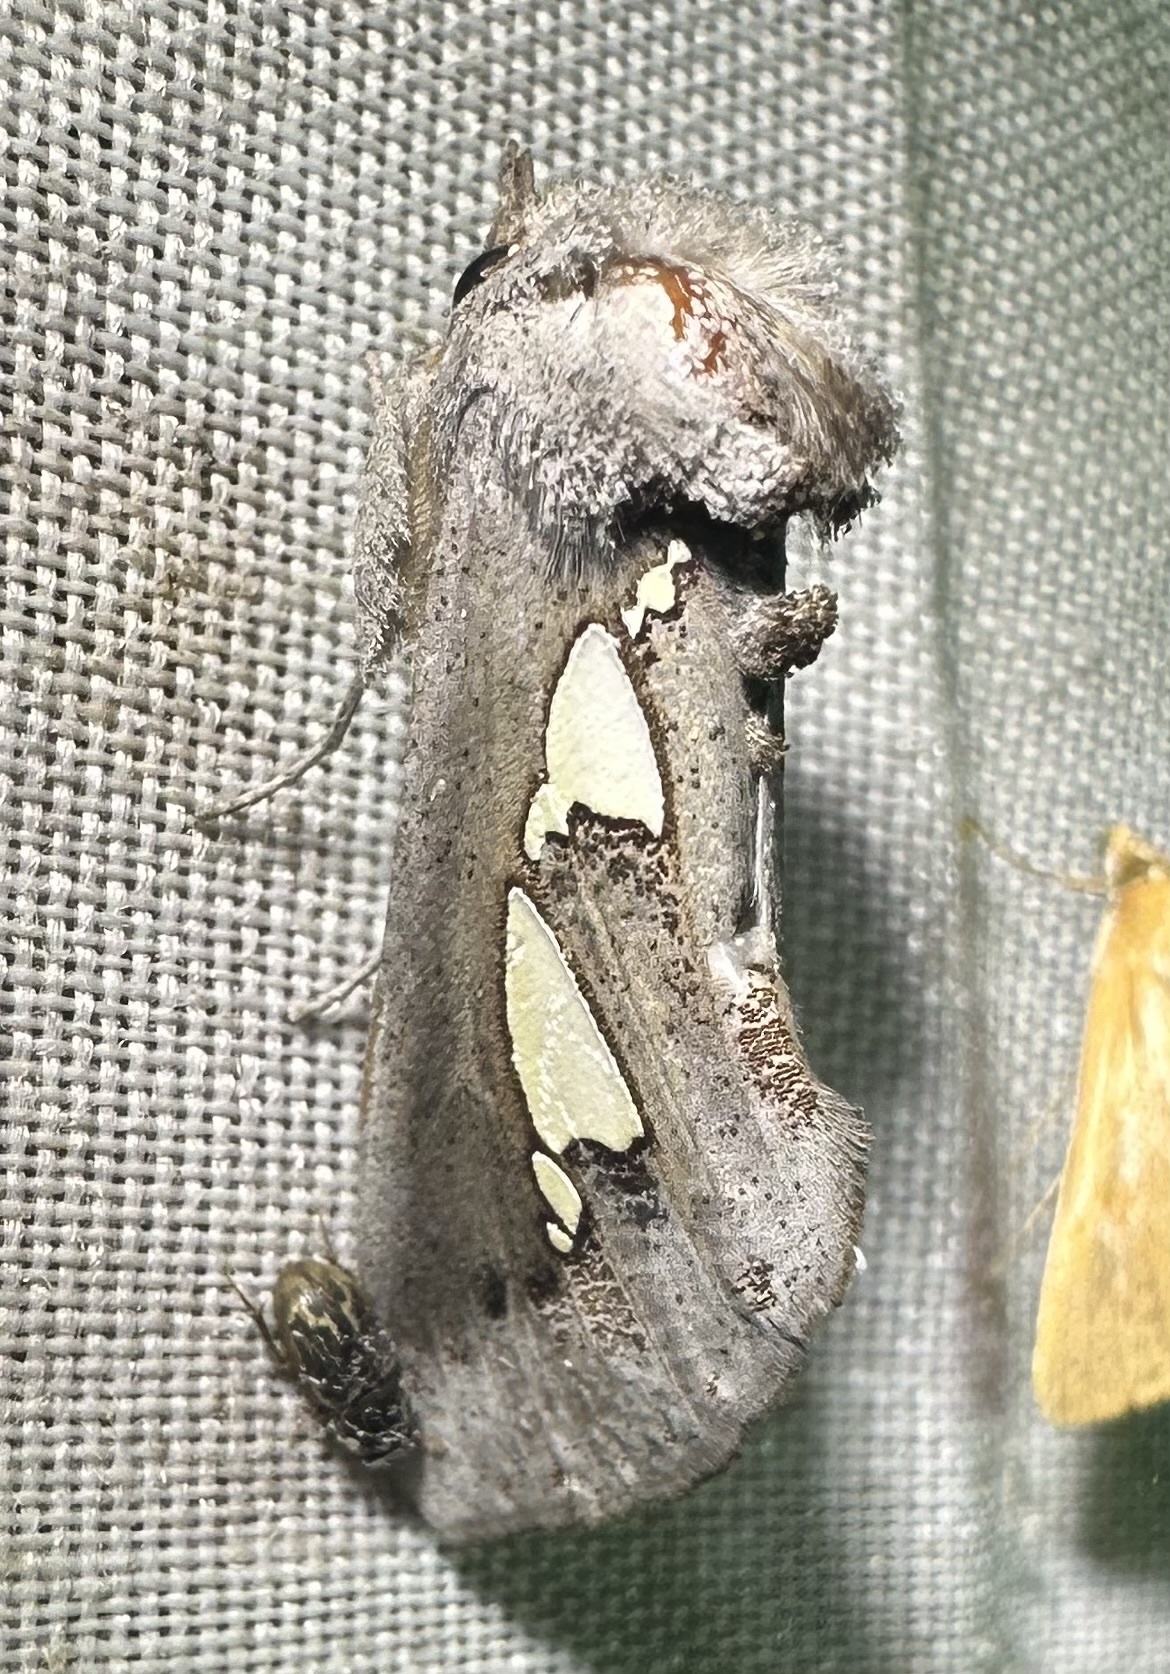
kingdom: Animalia
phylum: Arthropoda
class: Insecta
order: Lepidoptera
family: Erebidae
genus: Antiophlebia
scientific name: Antiophlebia bracteata
